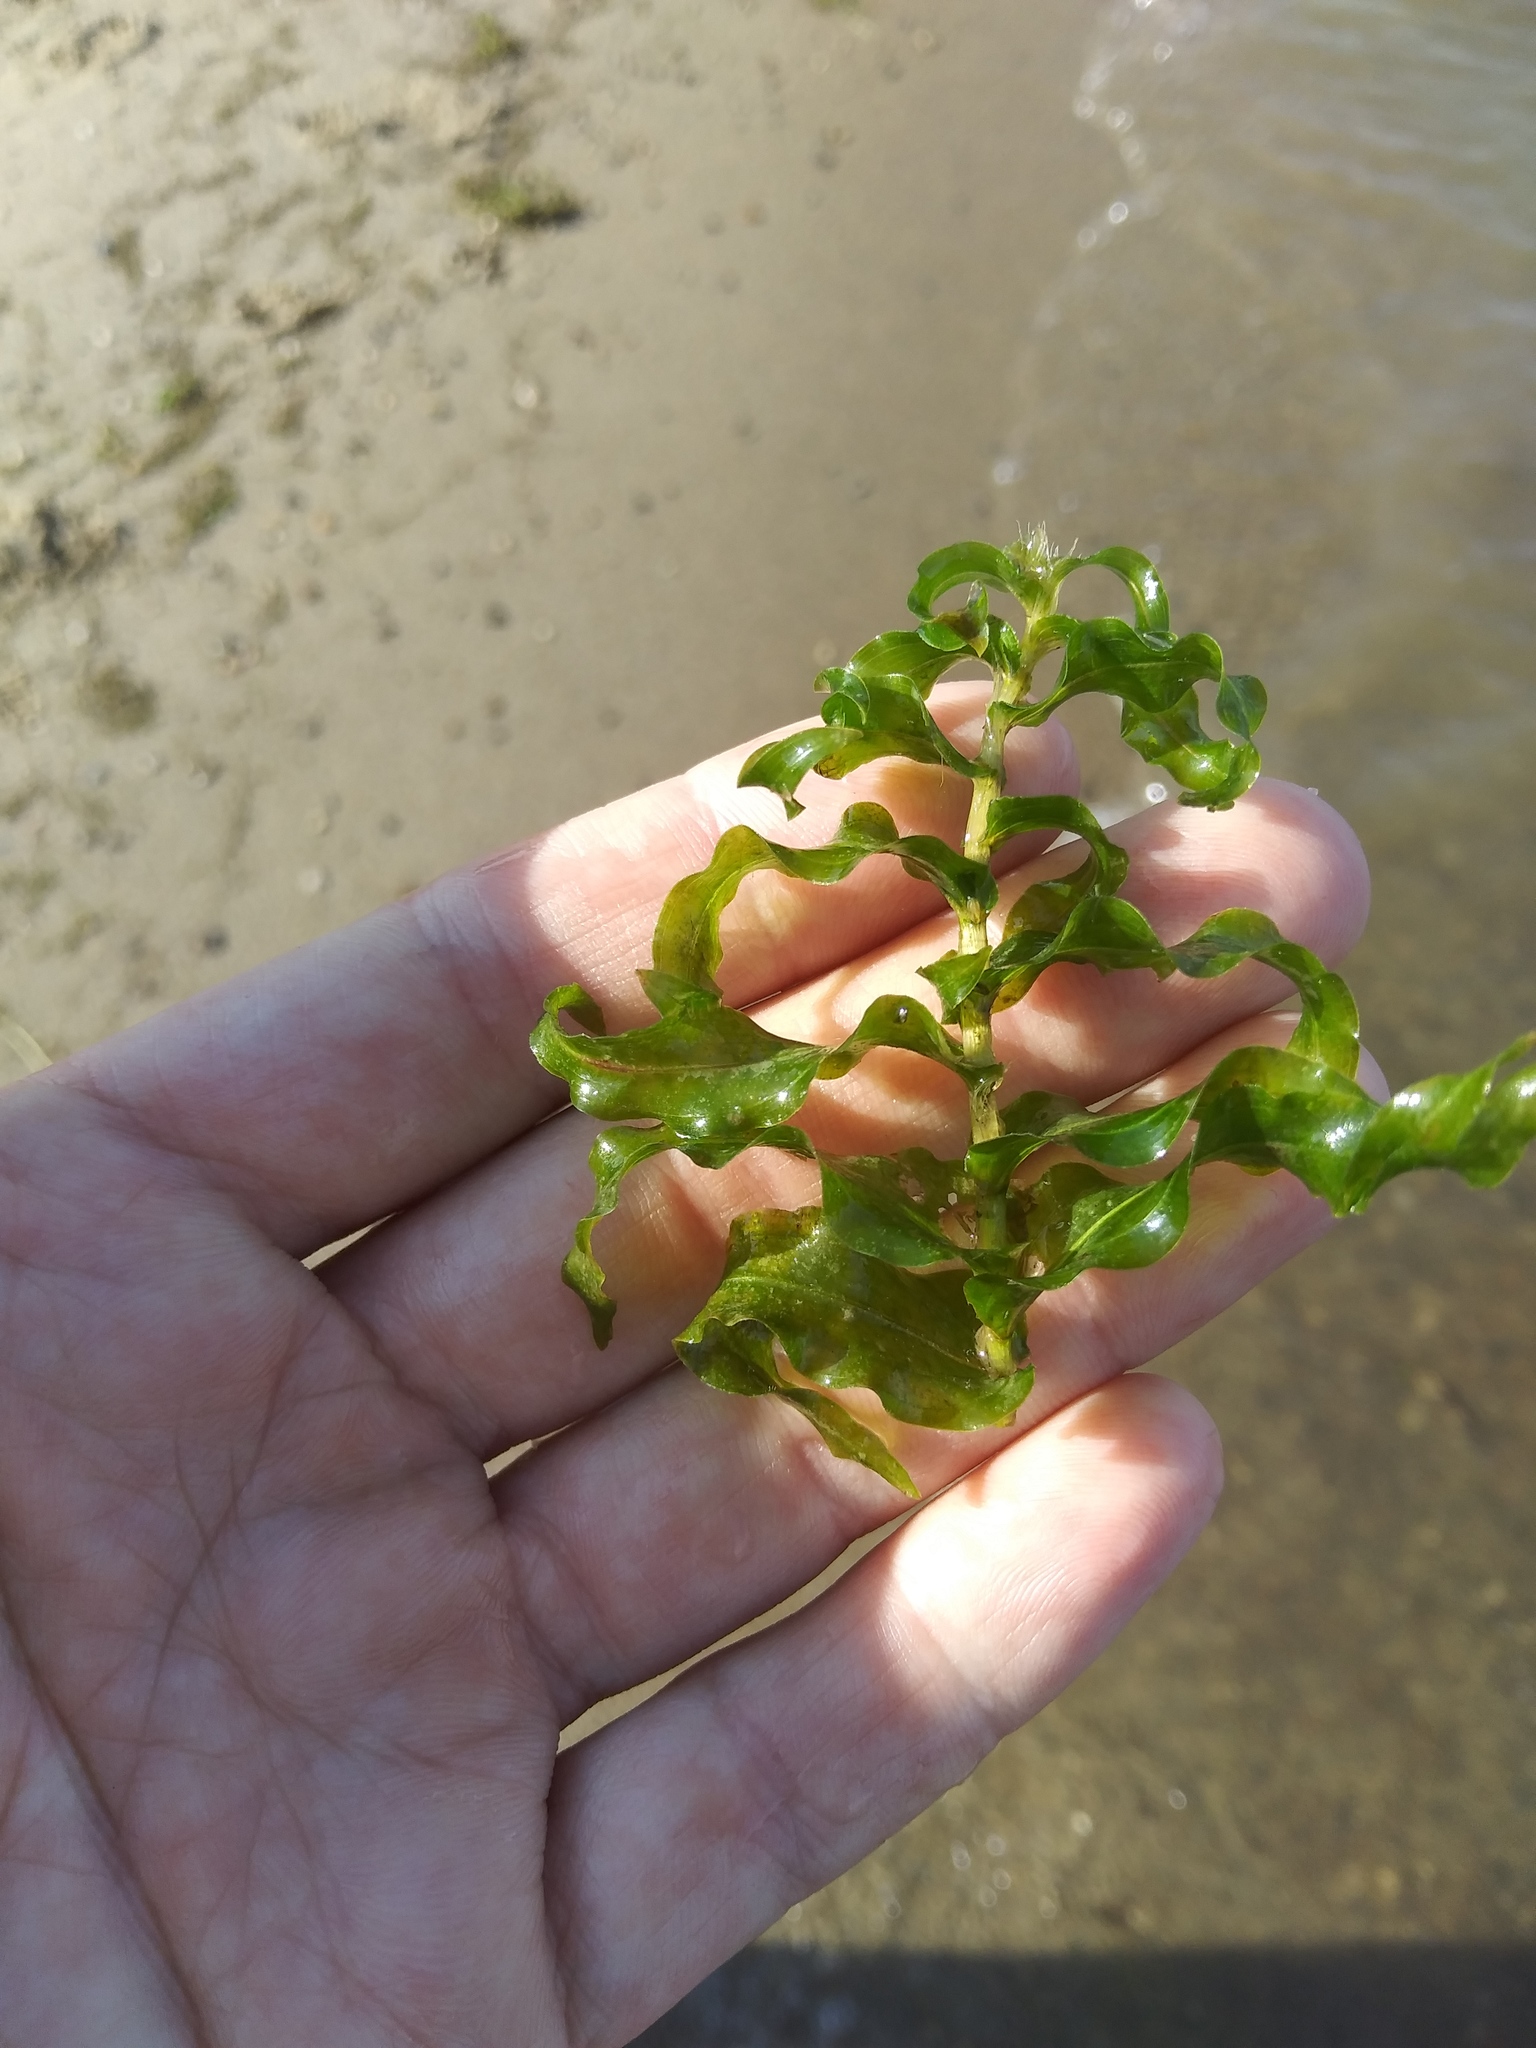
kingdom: Plantae
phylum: Tracheophyta
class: Liliopsida
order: Alismatales
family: Potamogetonaceae
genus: Potamogeton
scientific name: Potamogeton richardsonii
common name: Richardson's pondweed
